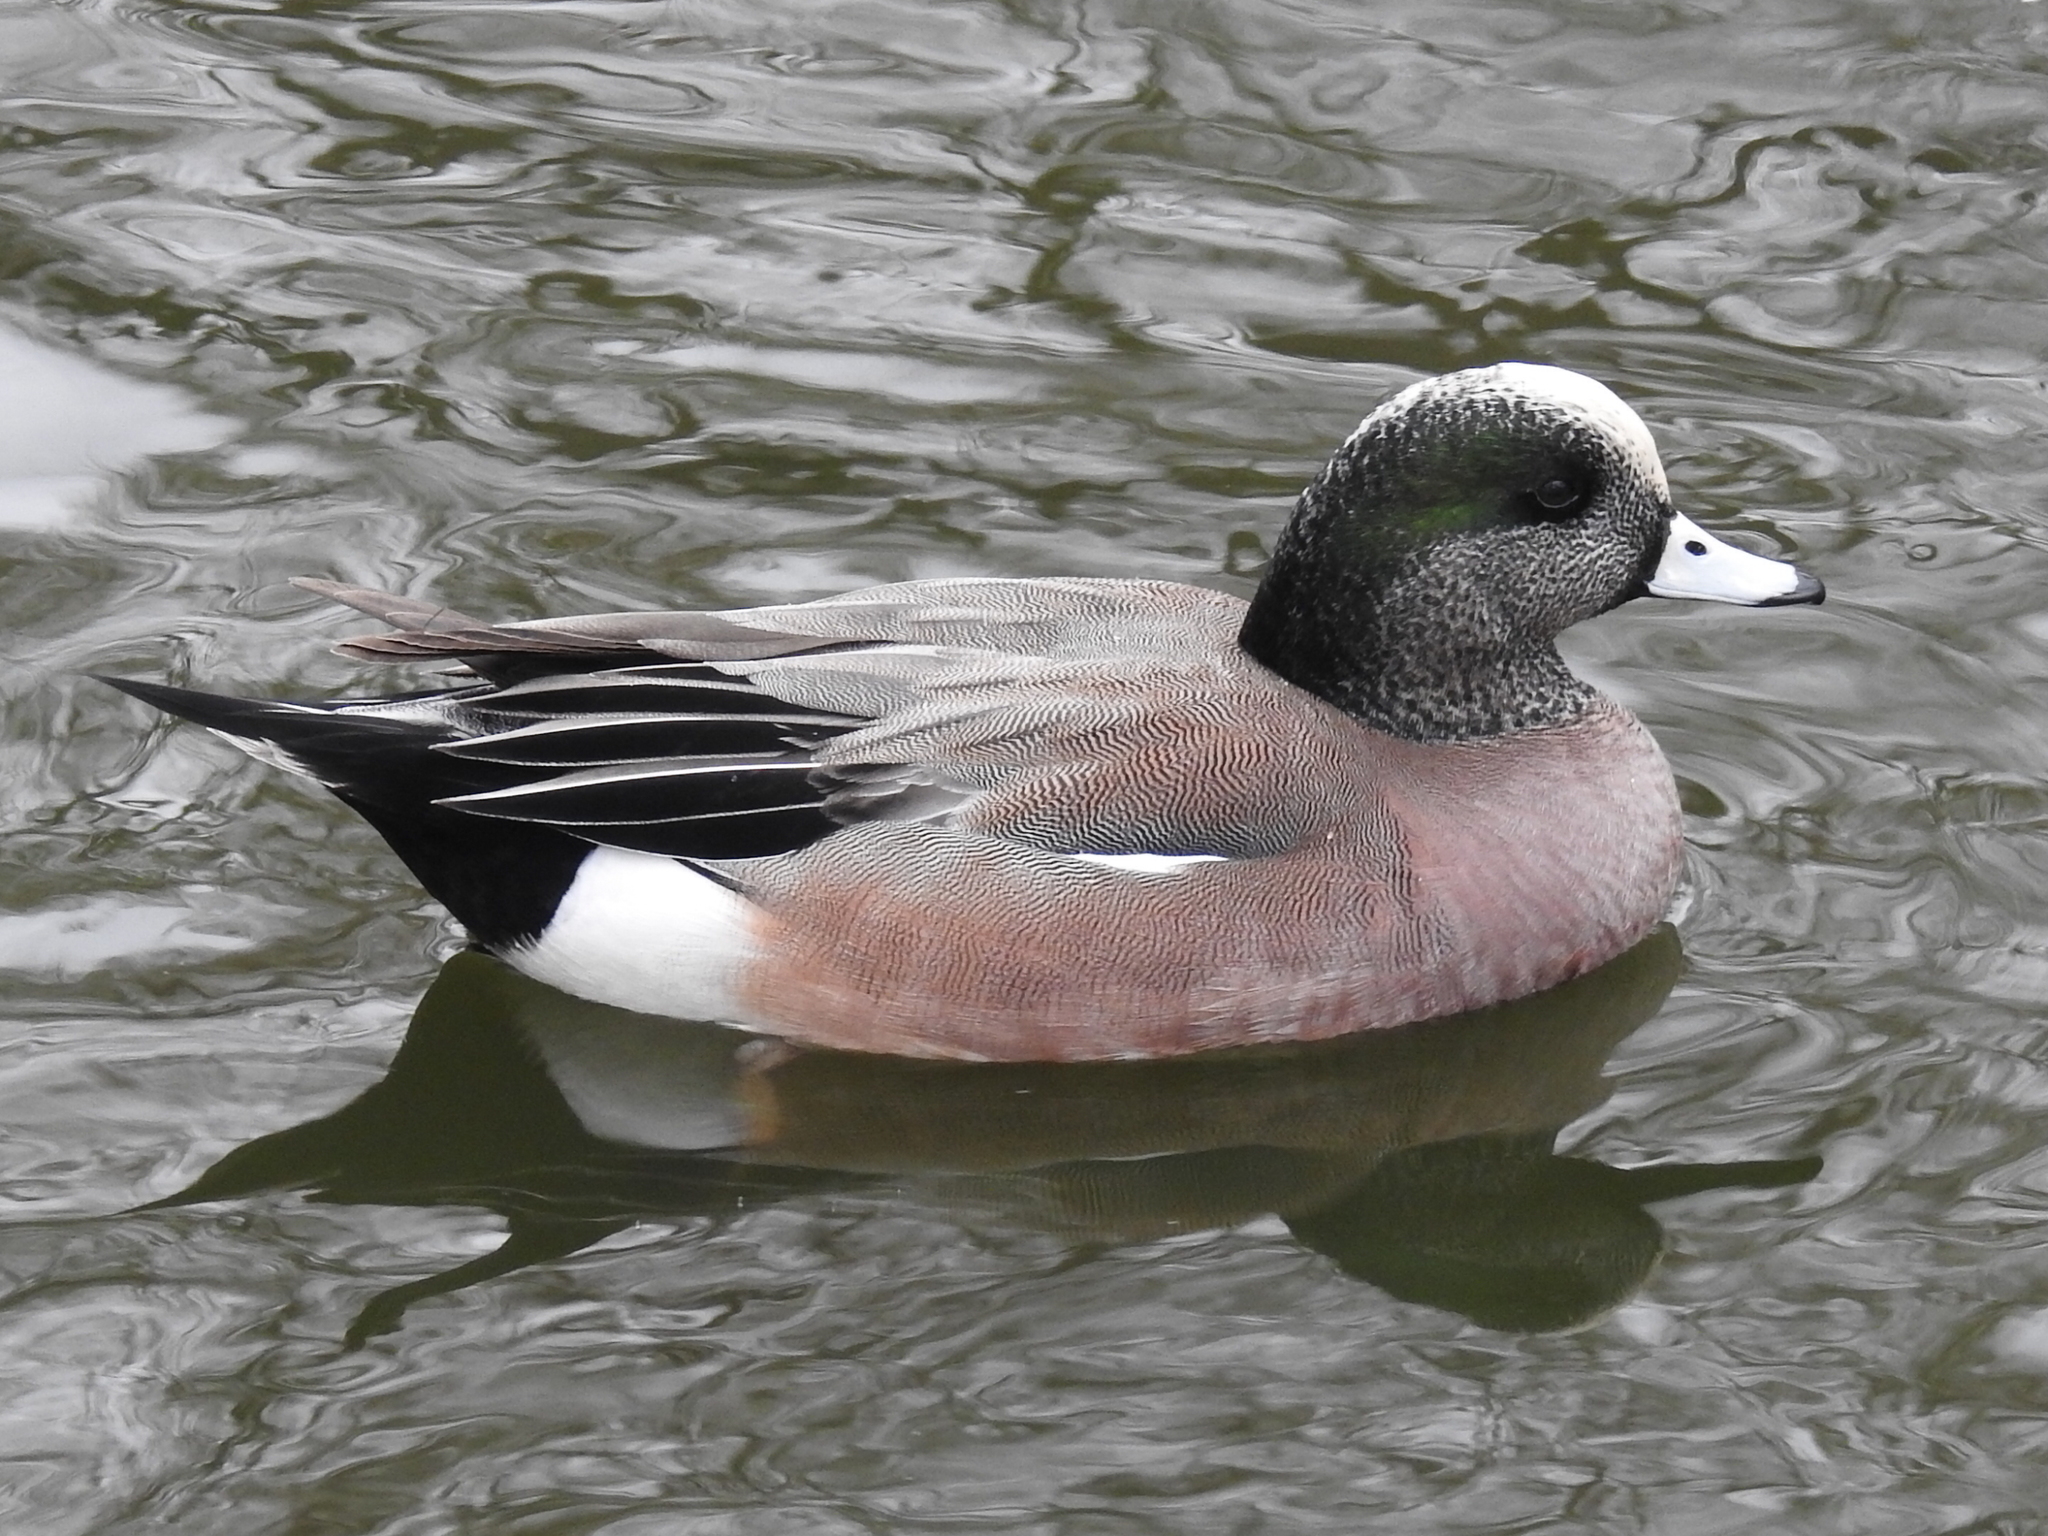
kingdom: Animalia
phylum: Chordata
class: Aves
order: Anseriformes
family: Anatidae
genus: Mareca
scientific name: Mareca americana
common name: American wigeon
